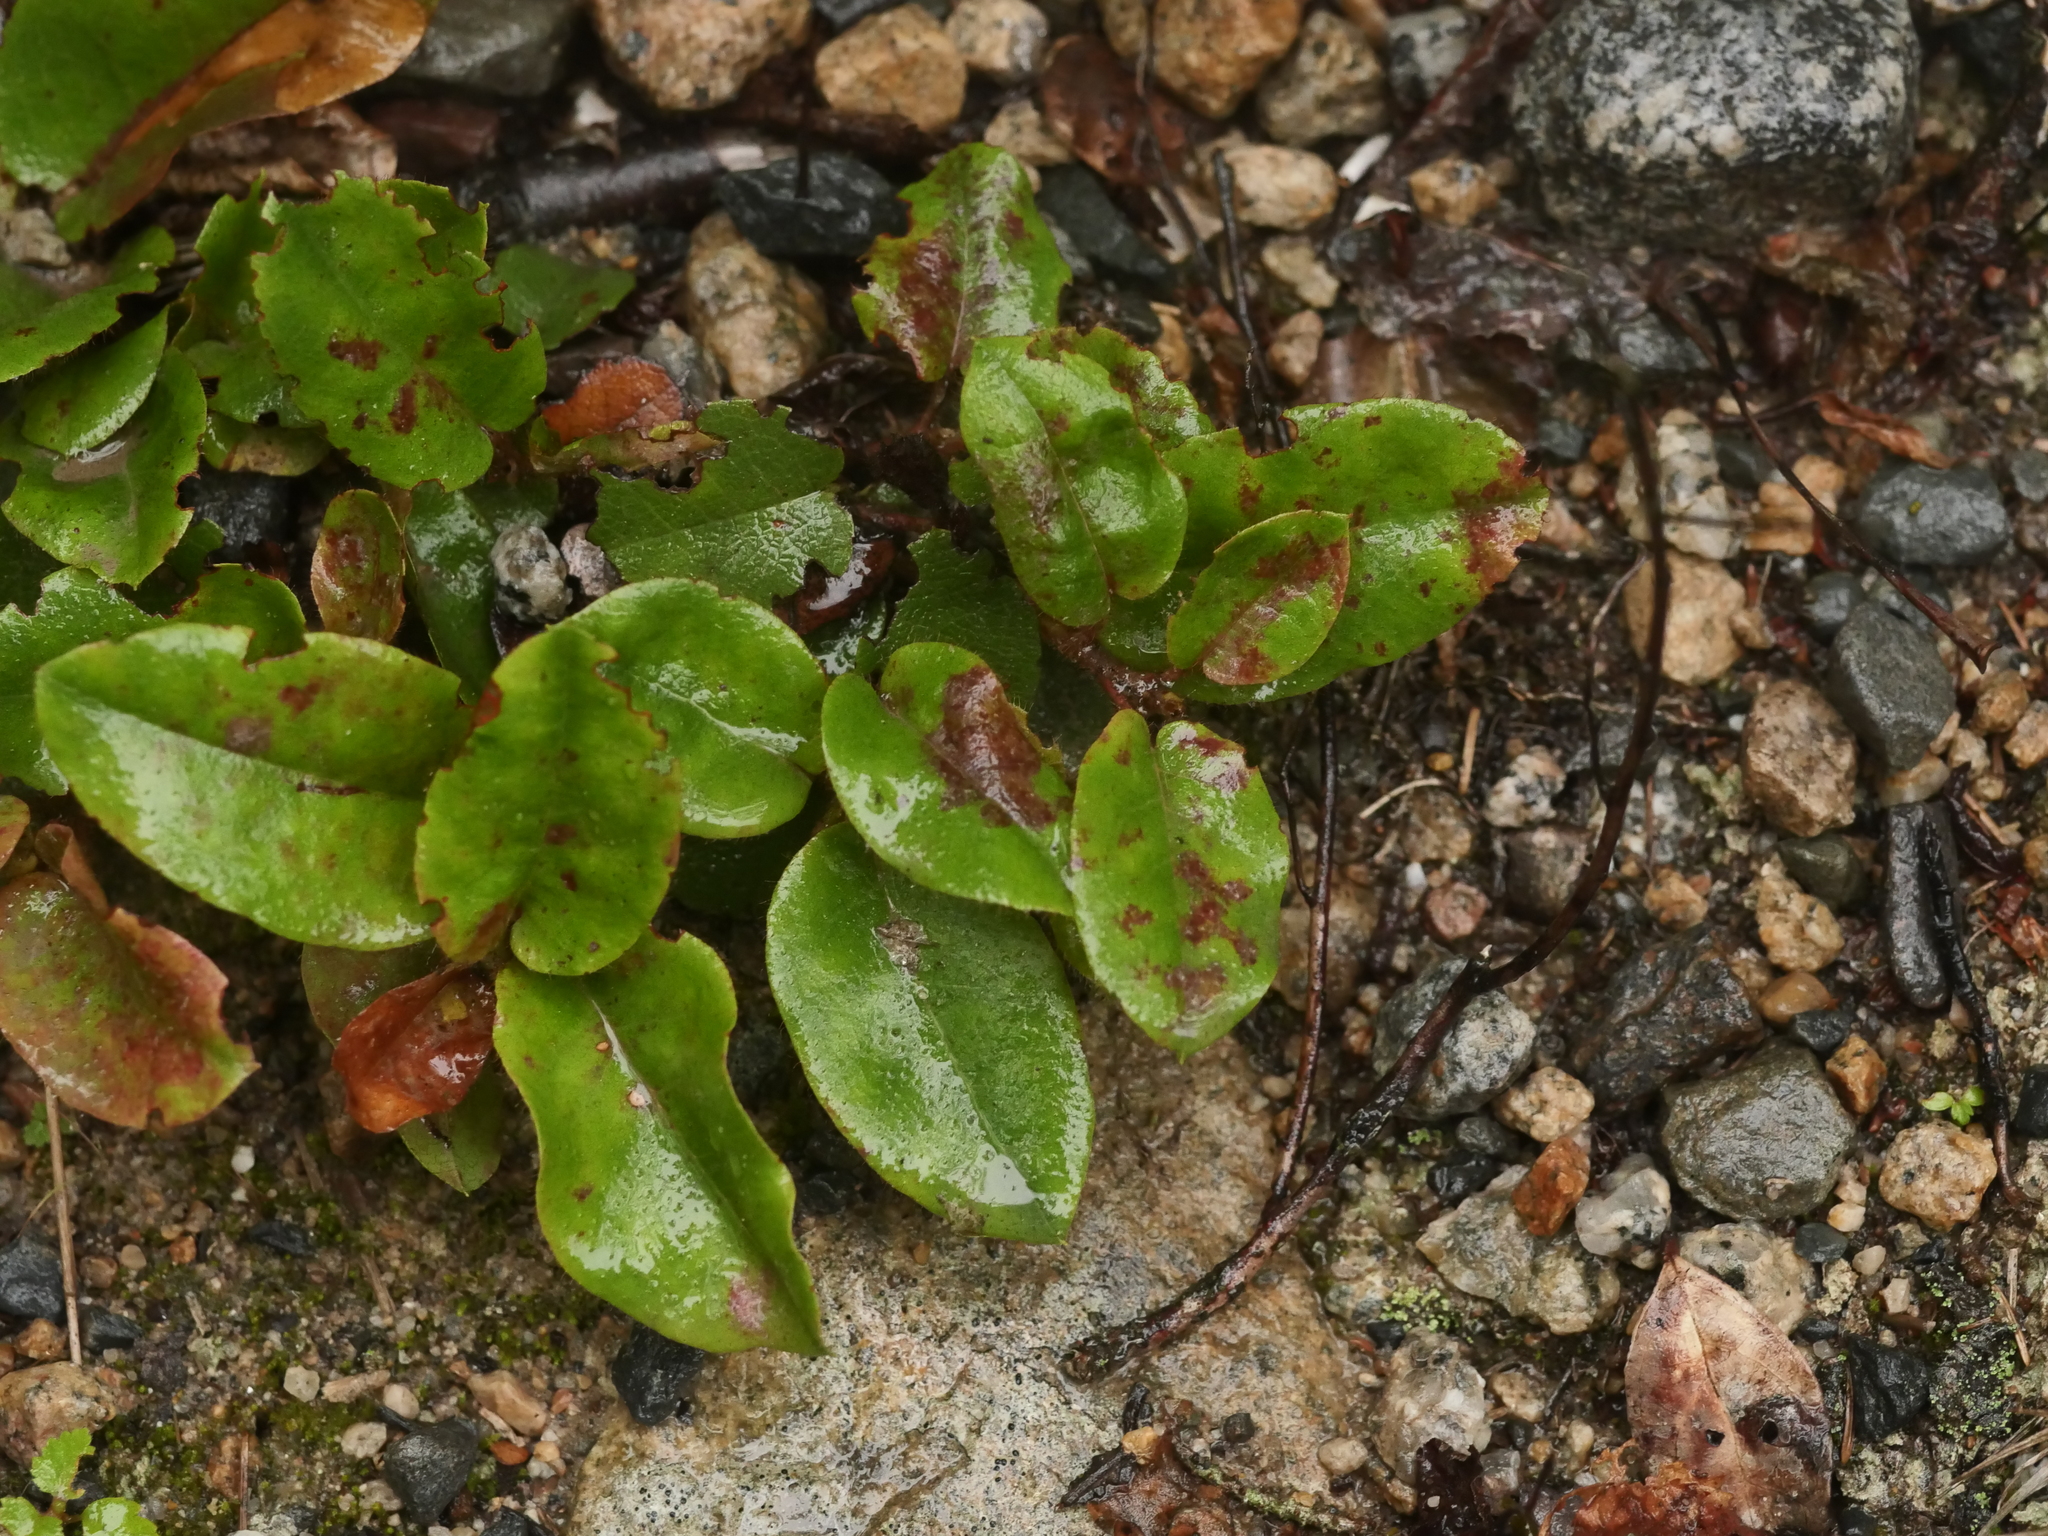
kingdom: Plantae
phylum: Tracheophyta
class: Magnoliopsida
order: Ericales
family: Ericaceae
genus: Epigaea
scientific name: Epigaea repens
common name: Gravelroot
